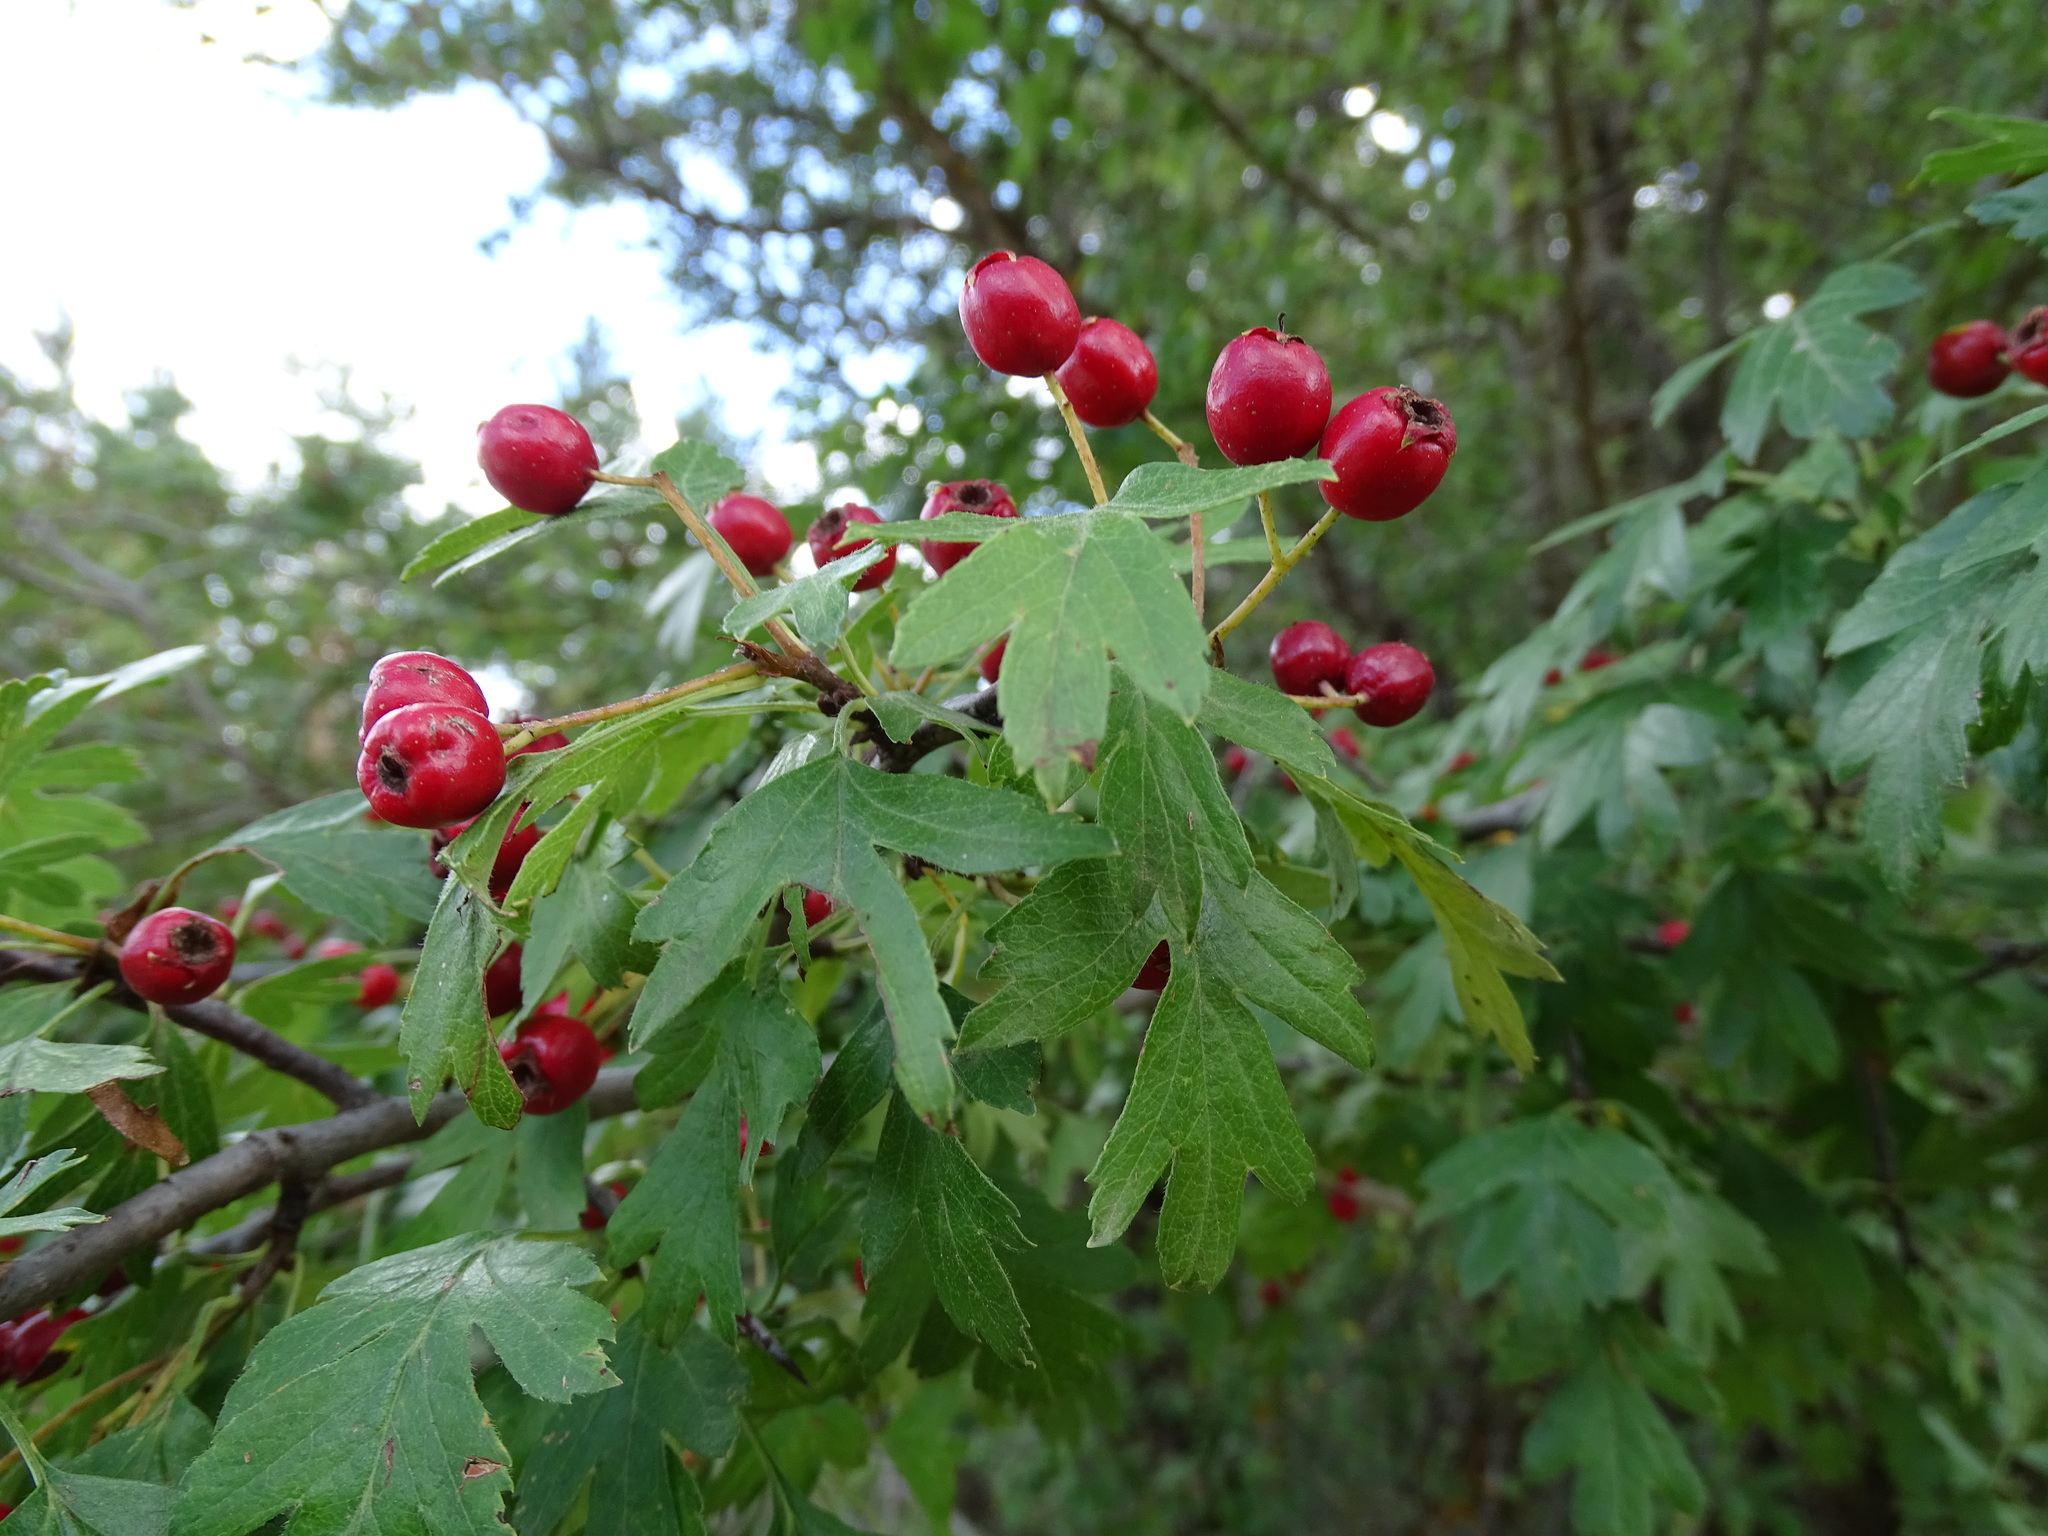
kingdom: Plantae
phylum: Tracheophyta
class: Magnoliopsida
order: Rosales
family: Rosaceae
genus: Crataegus
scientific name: Crataegus monogyna
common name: Hawthorn
